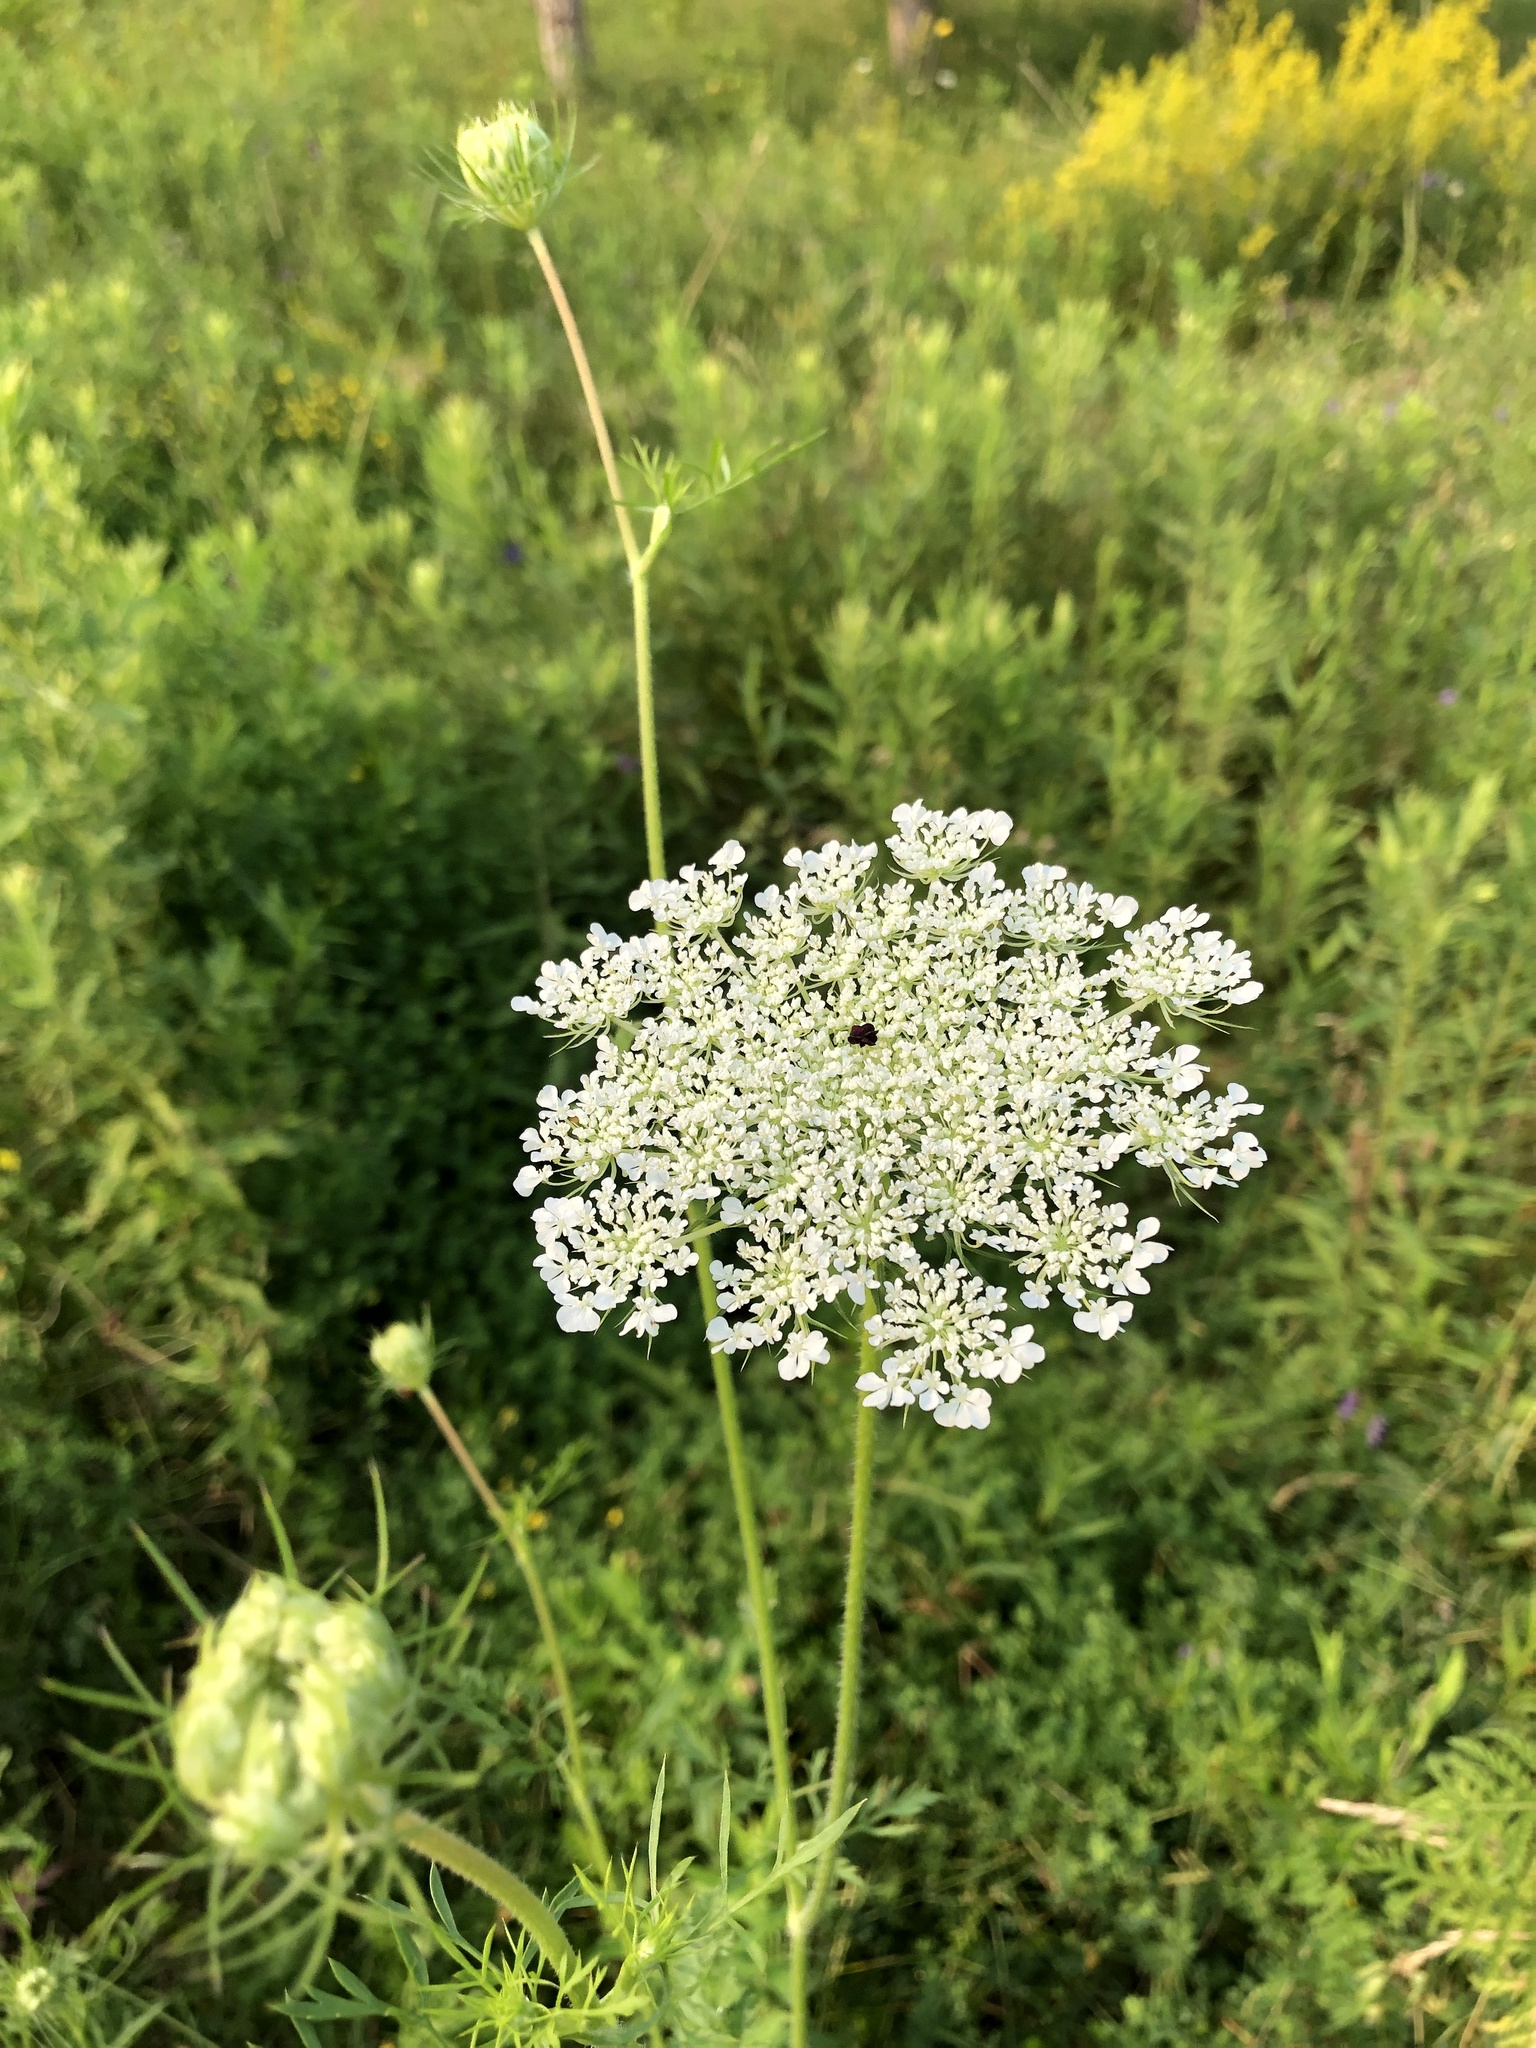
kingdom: Plantae
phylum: Tracheophyta
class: Magnoliopsida
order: Apiales
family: Apiaceae
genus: Daucus
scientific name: Daucus carota
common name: Wild carrot
